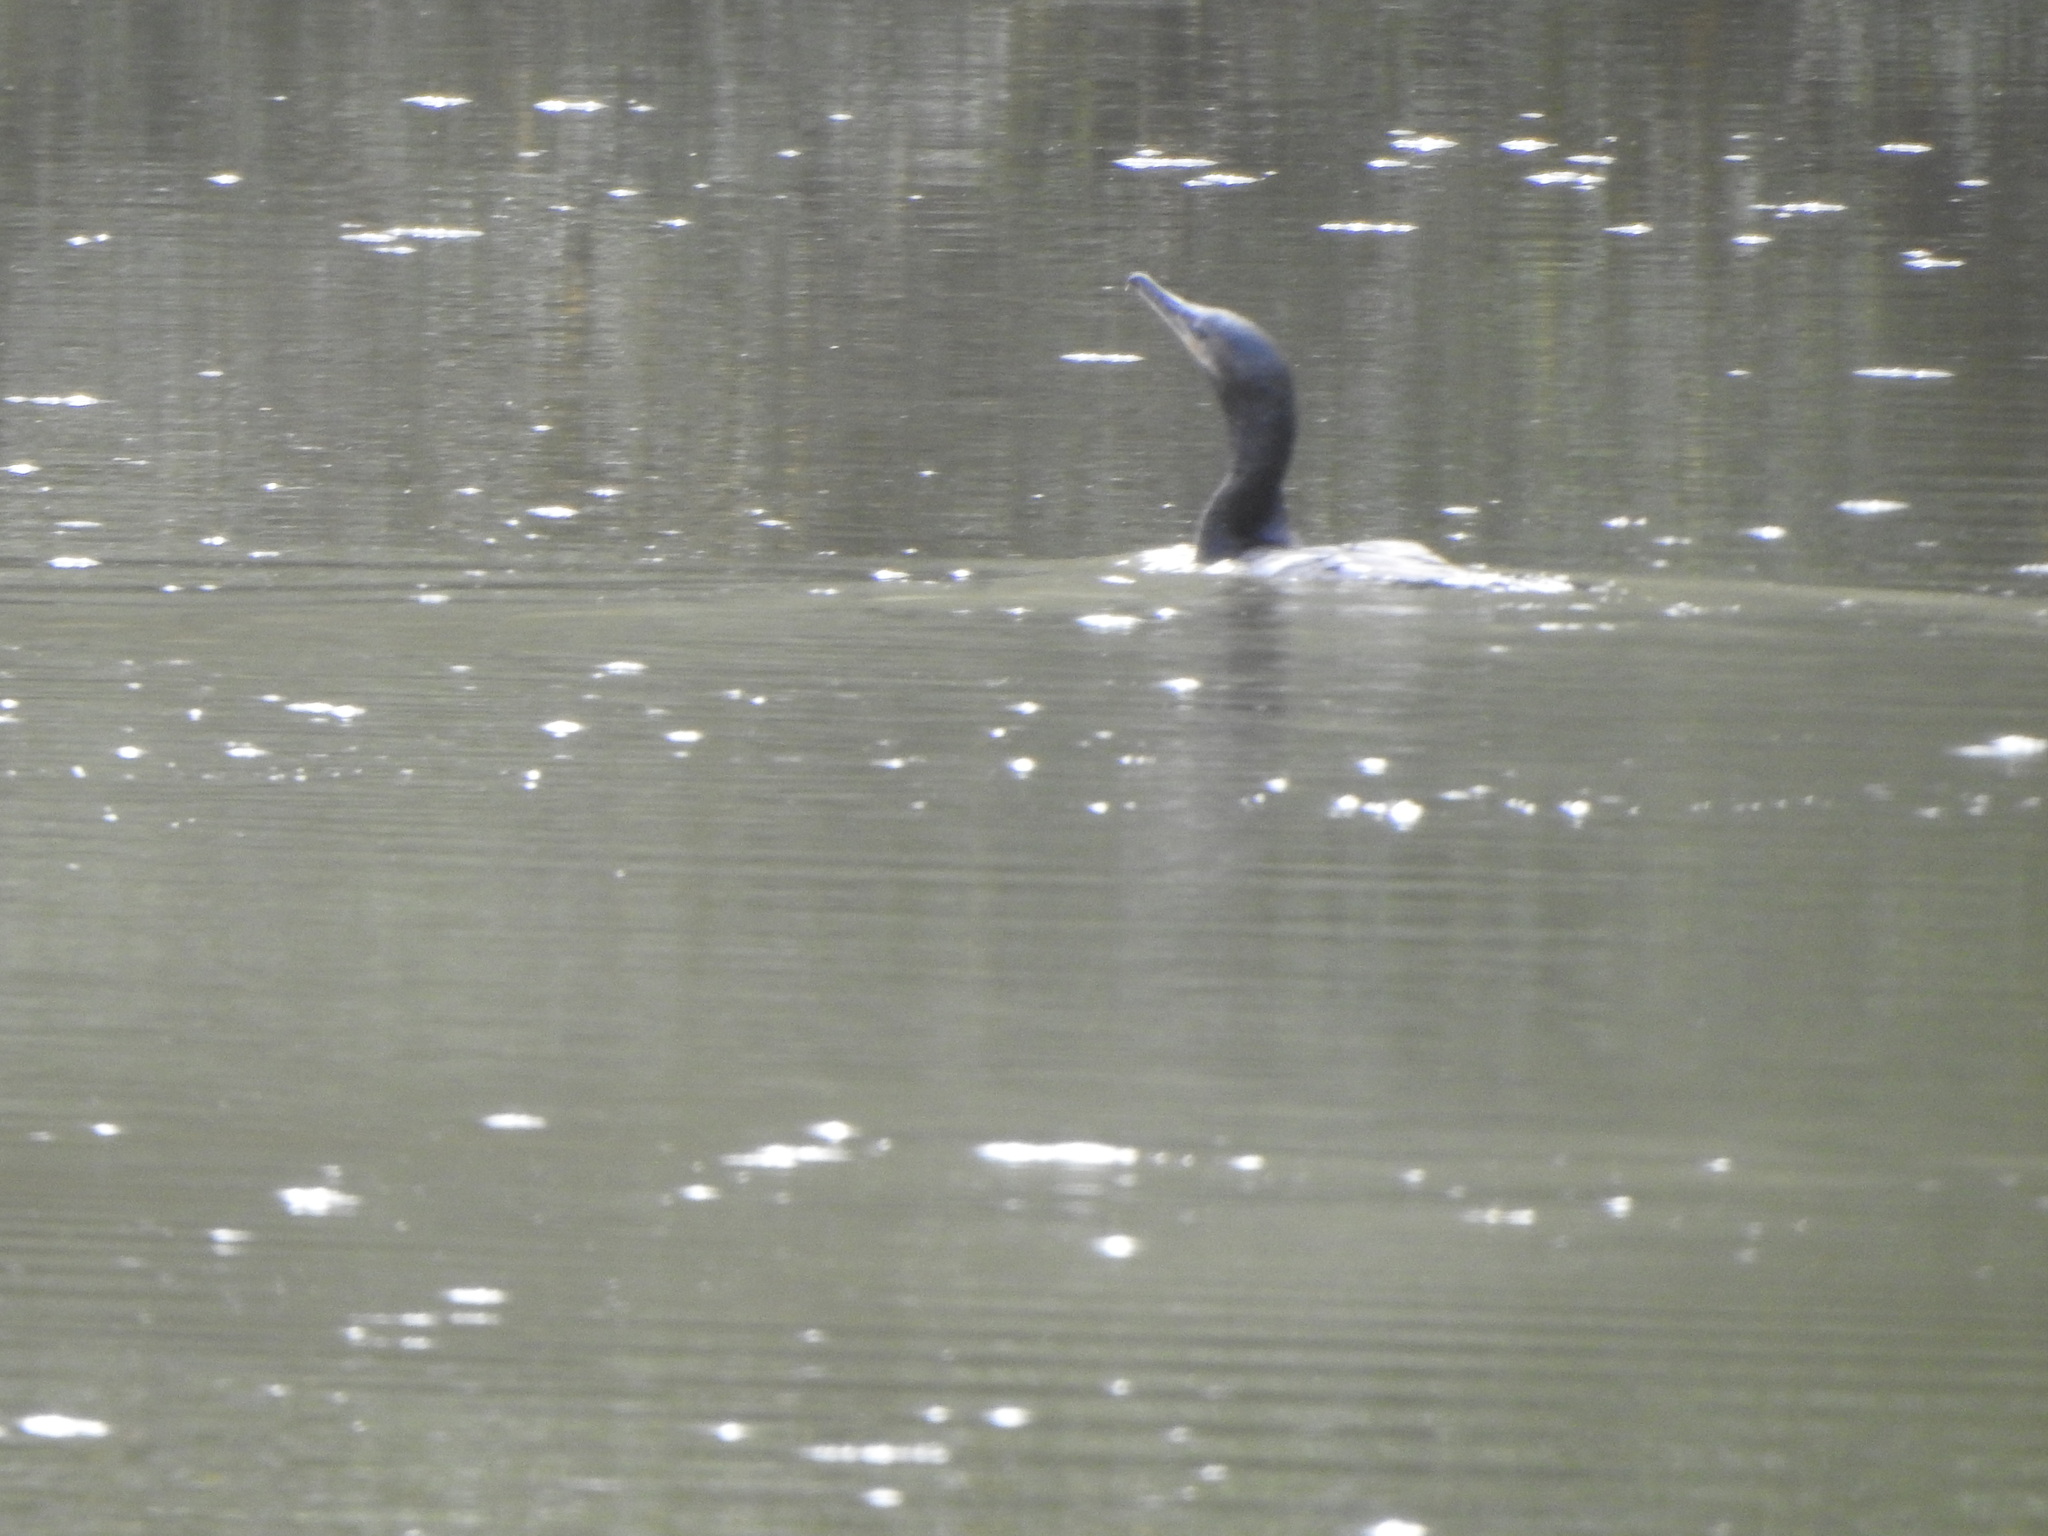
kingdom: Animalia
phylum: Chordata
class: Aves
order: Suliformes
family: Phalacrocoracidae
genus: Phalacrocorax
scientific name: Phalacrocorax brasilianus
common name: Neotropic cormorant
